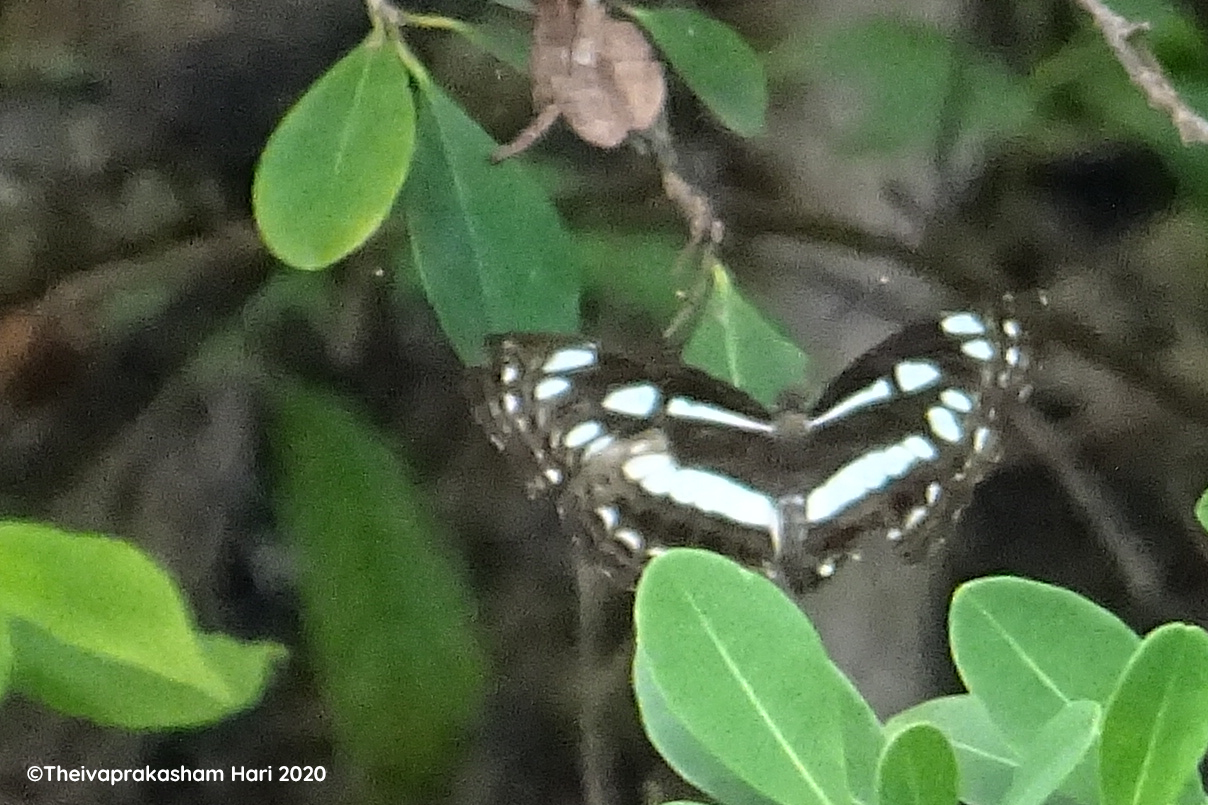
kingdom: Animalia
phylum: Arthropoda
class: Insecta
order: Lepidoptera
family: Nymphalidae
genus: Neptis
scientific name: Neptis jumbah
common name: Chestnut-streaked sailer
